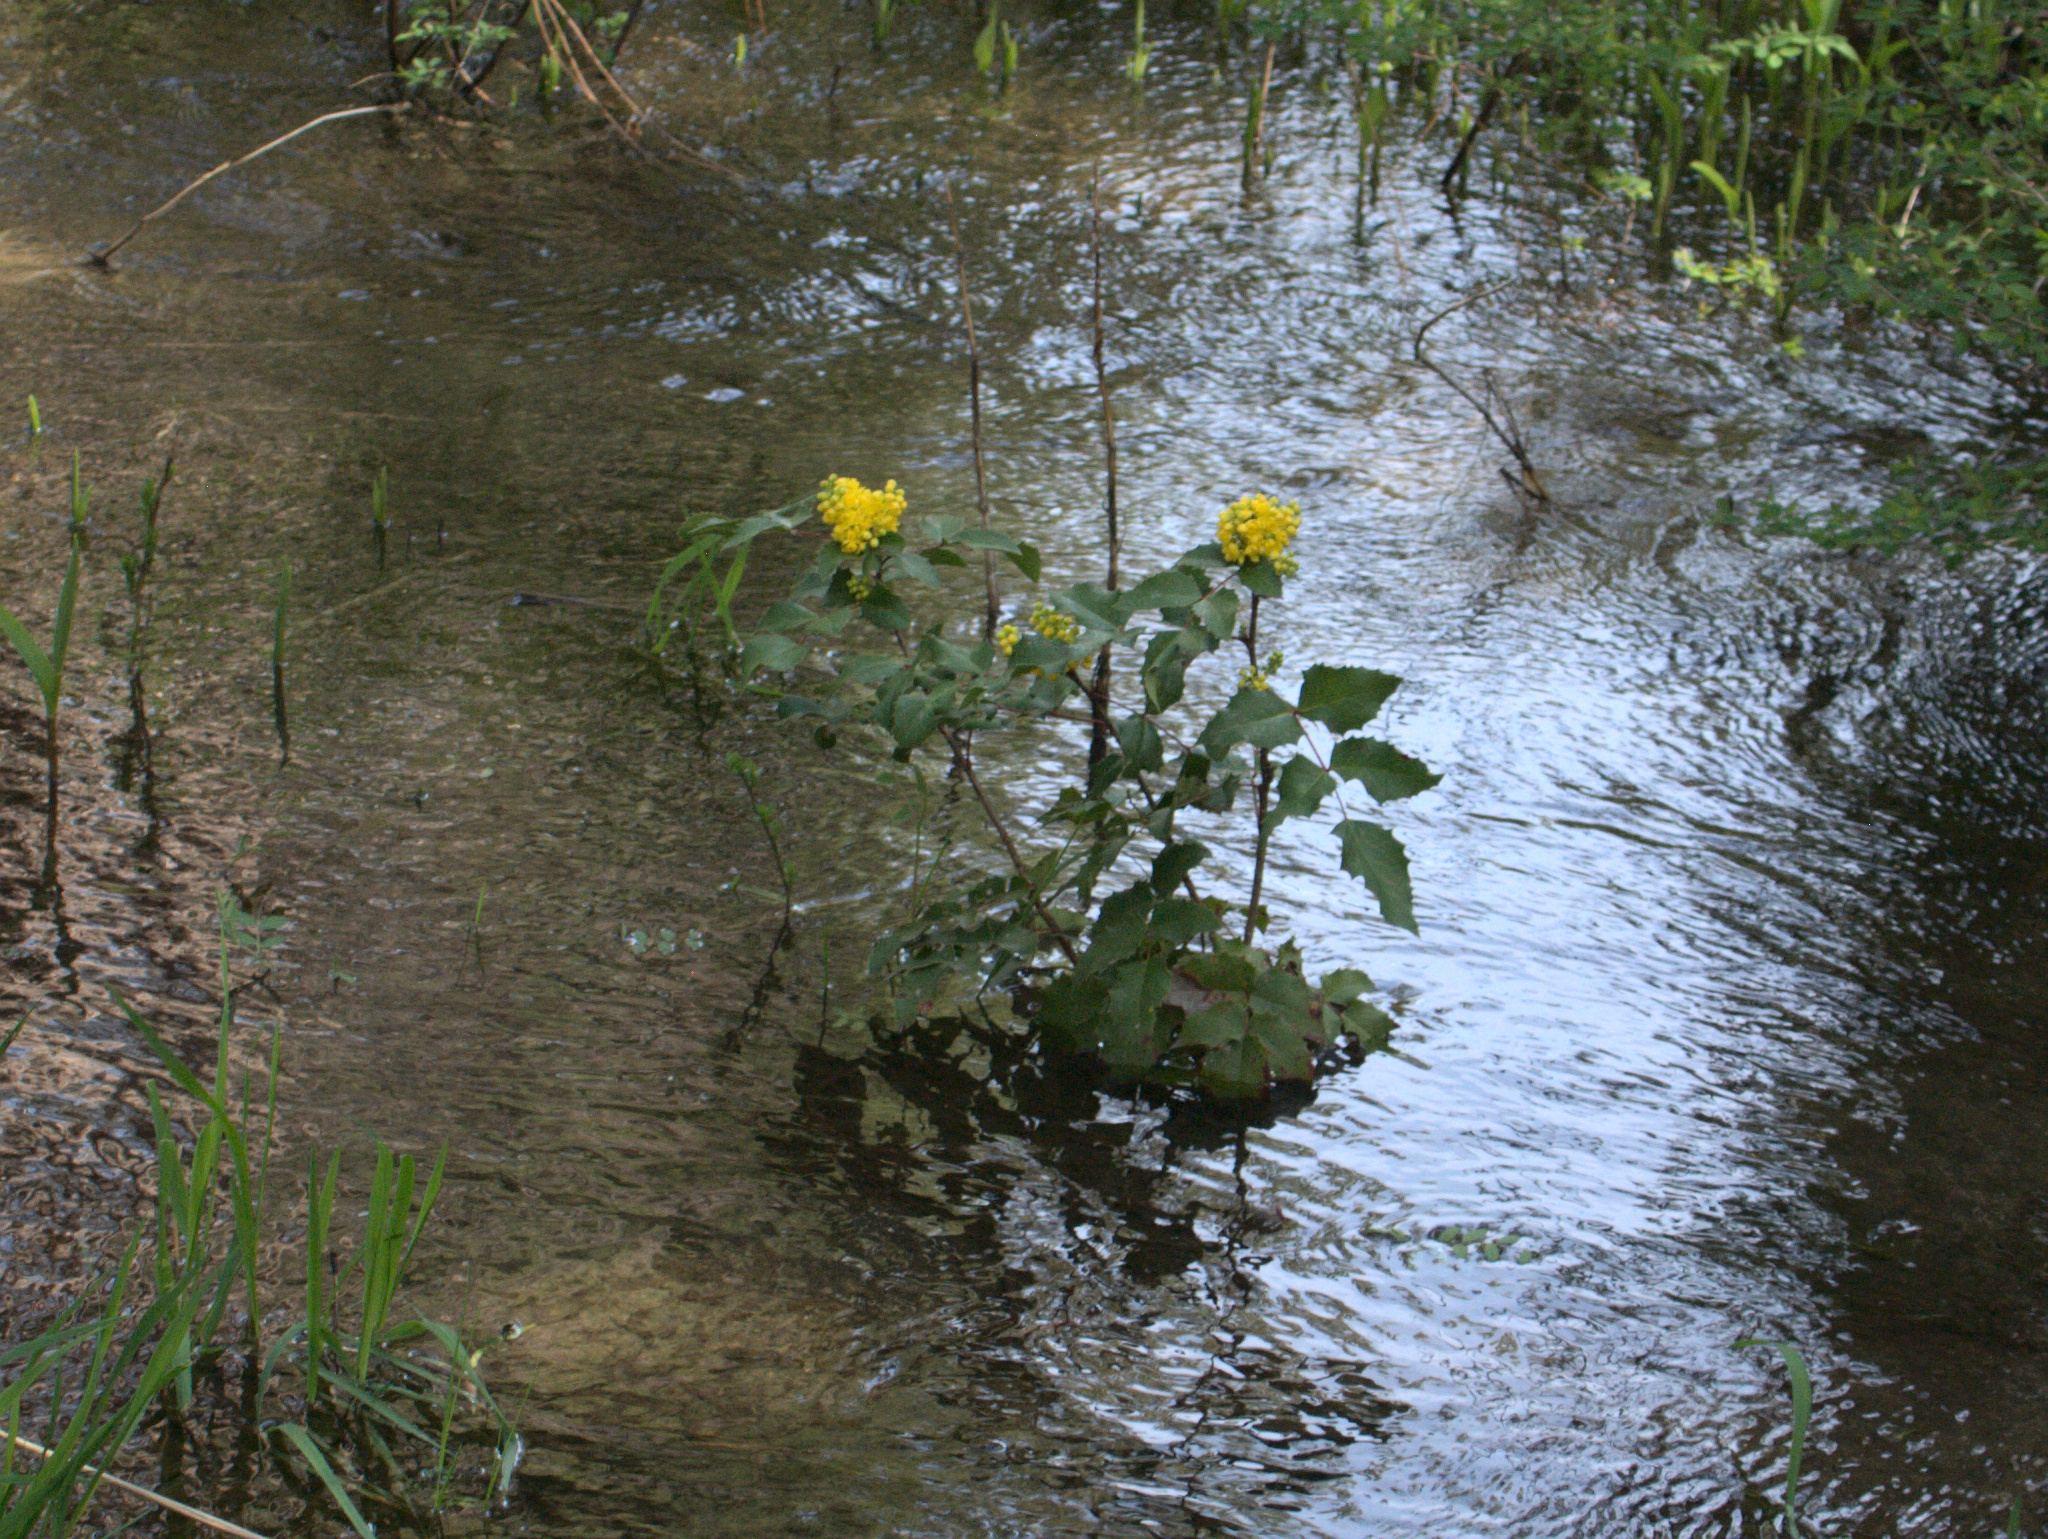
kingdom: Plantae
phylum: Tracheophyta
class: Magnoliopsida
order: Ranunculales
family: Berberidaceae
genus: Mahonia
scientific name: Mahonia aquifolium
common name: Oregon-grape
